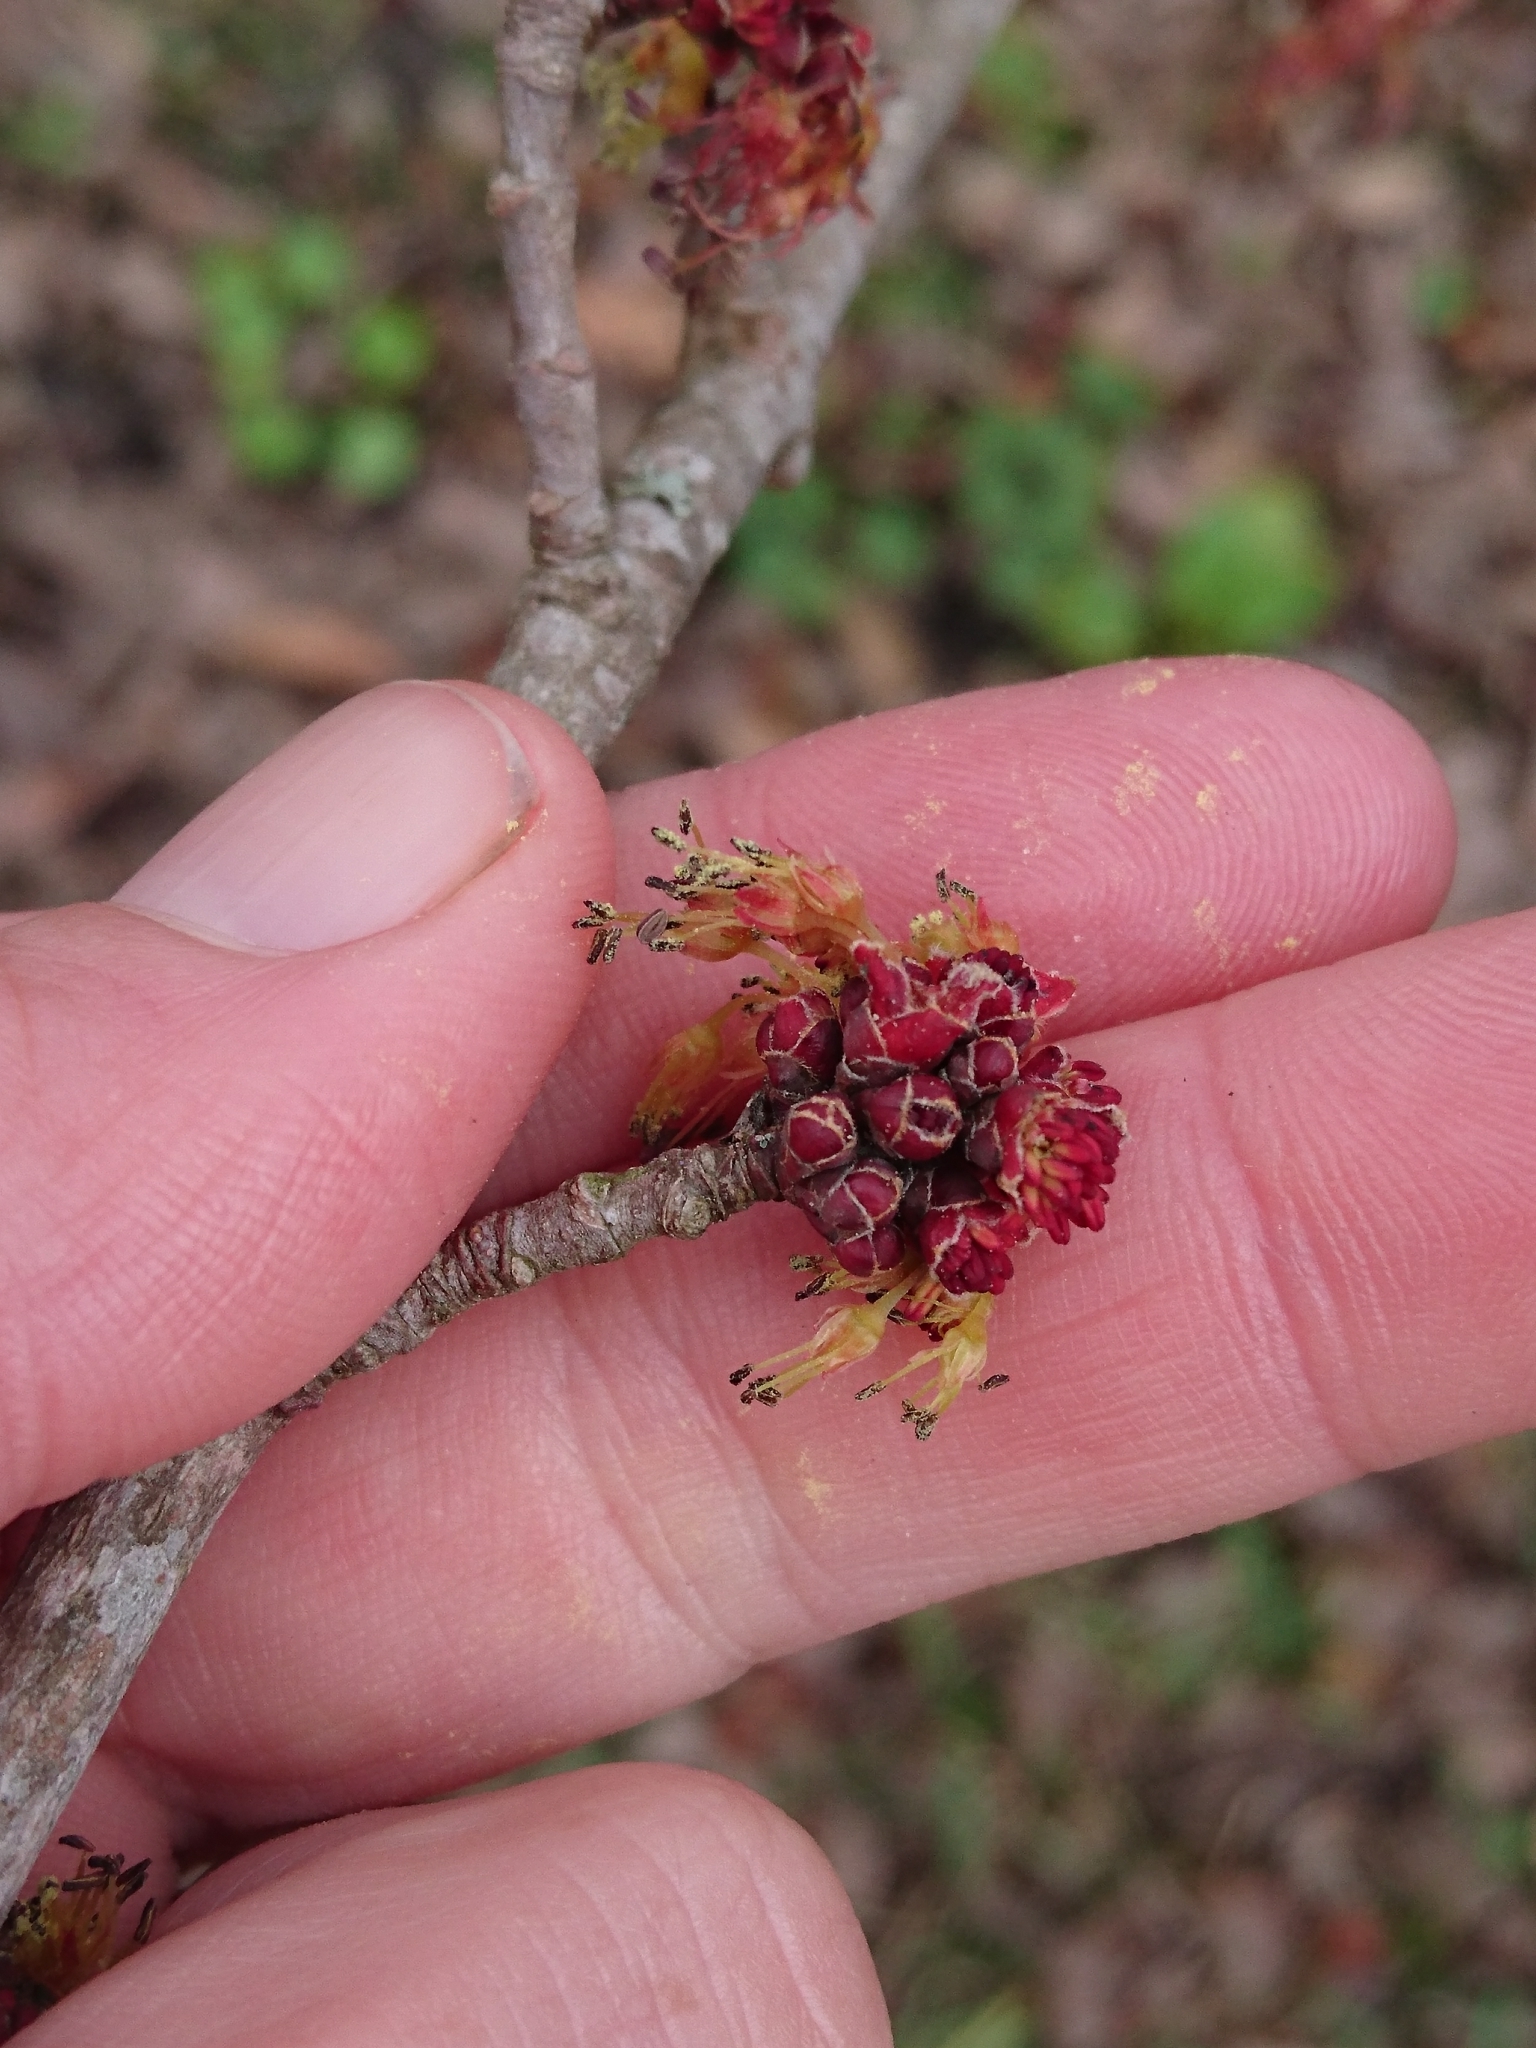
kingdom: Plantae
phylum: Tracheophyta
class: Magnoliopsida
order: Sapindales
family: Sapindaceae
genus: Acer
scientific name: Acer rubrum
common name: Red maple
